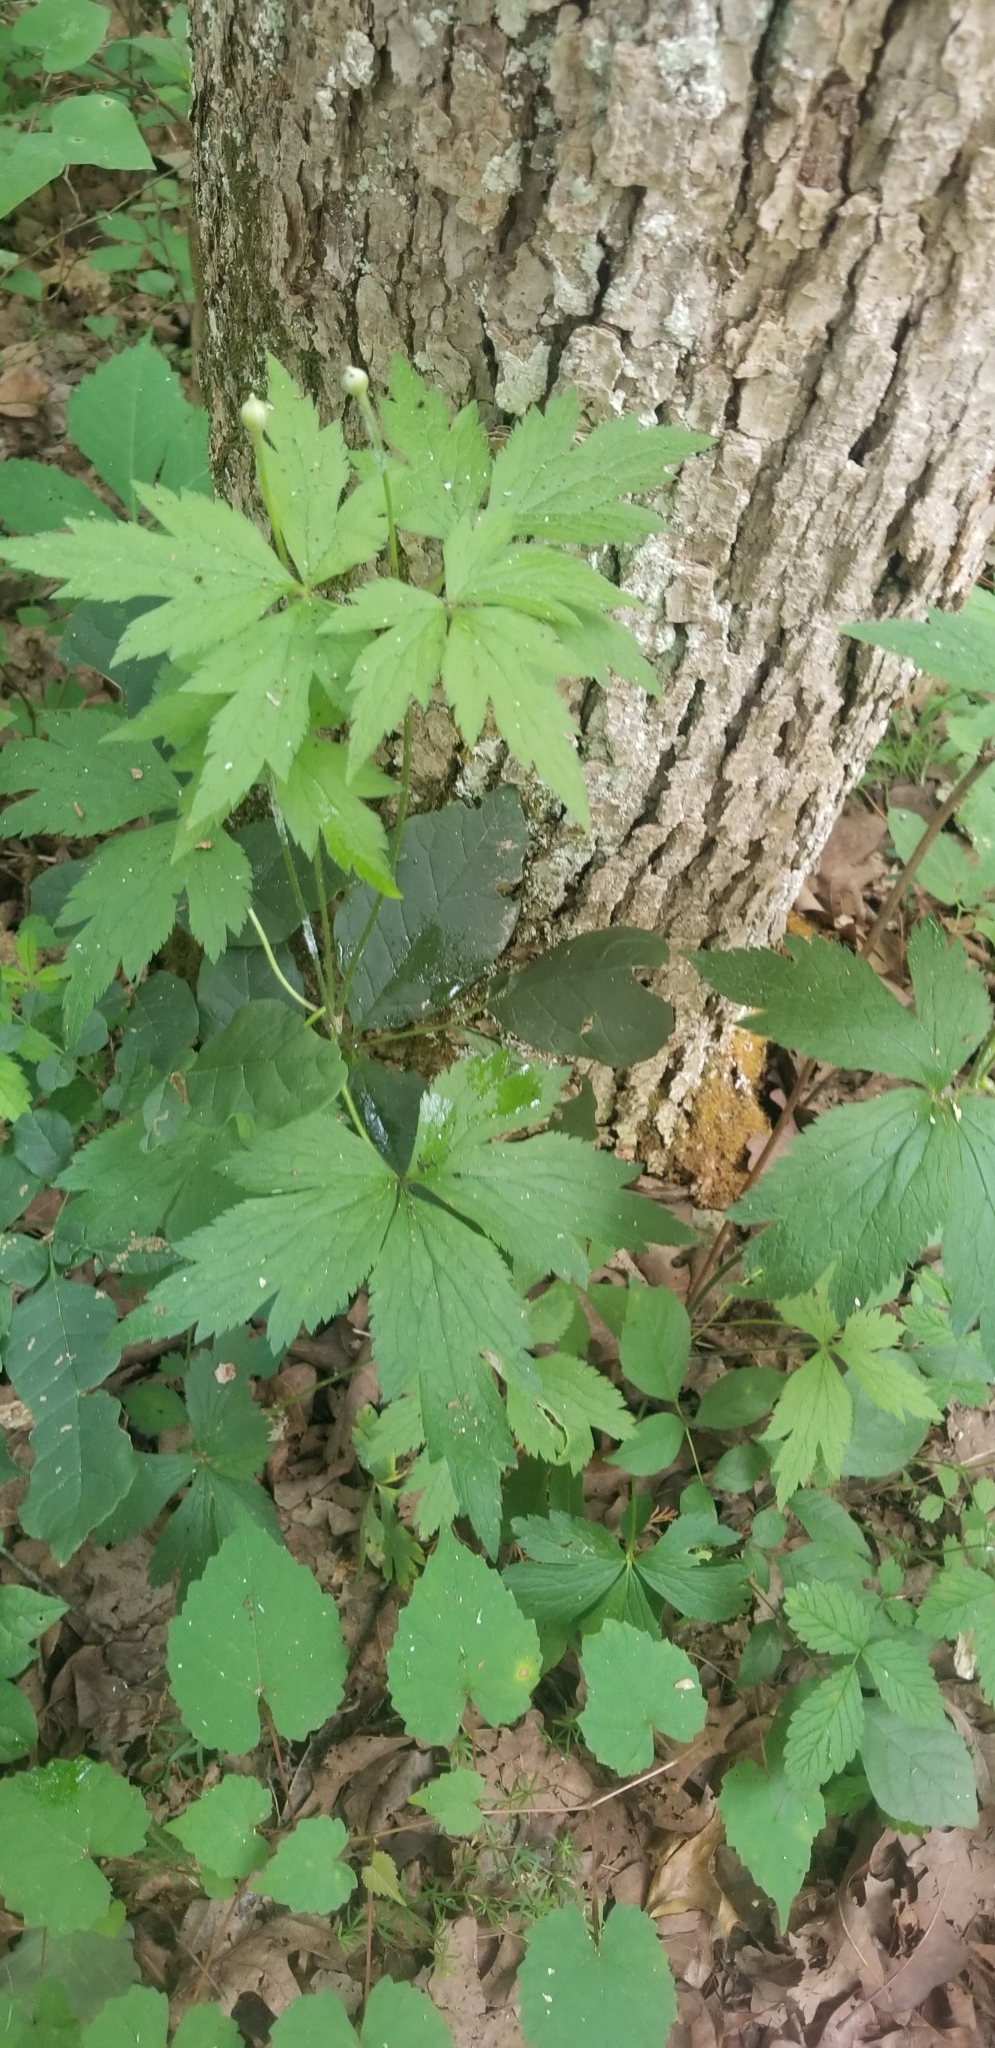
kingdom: Plantae
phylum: Tracheophyta
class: Magnoliopsida
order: Ranunculales
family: Ranunculaceae
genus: Anemone
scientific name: Anemone virginiana
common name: Tall anemone
